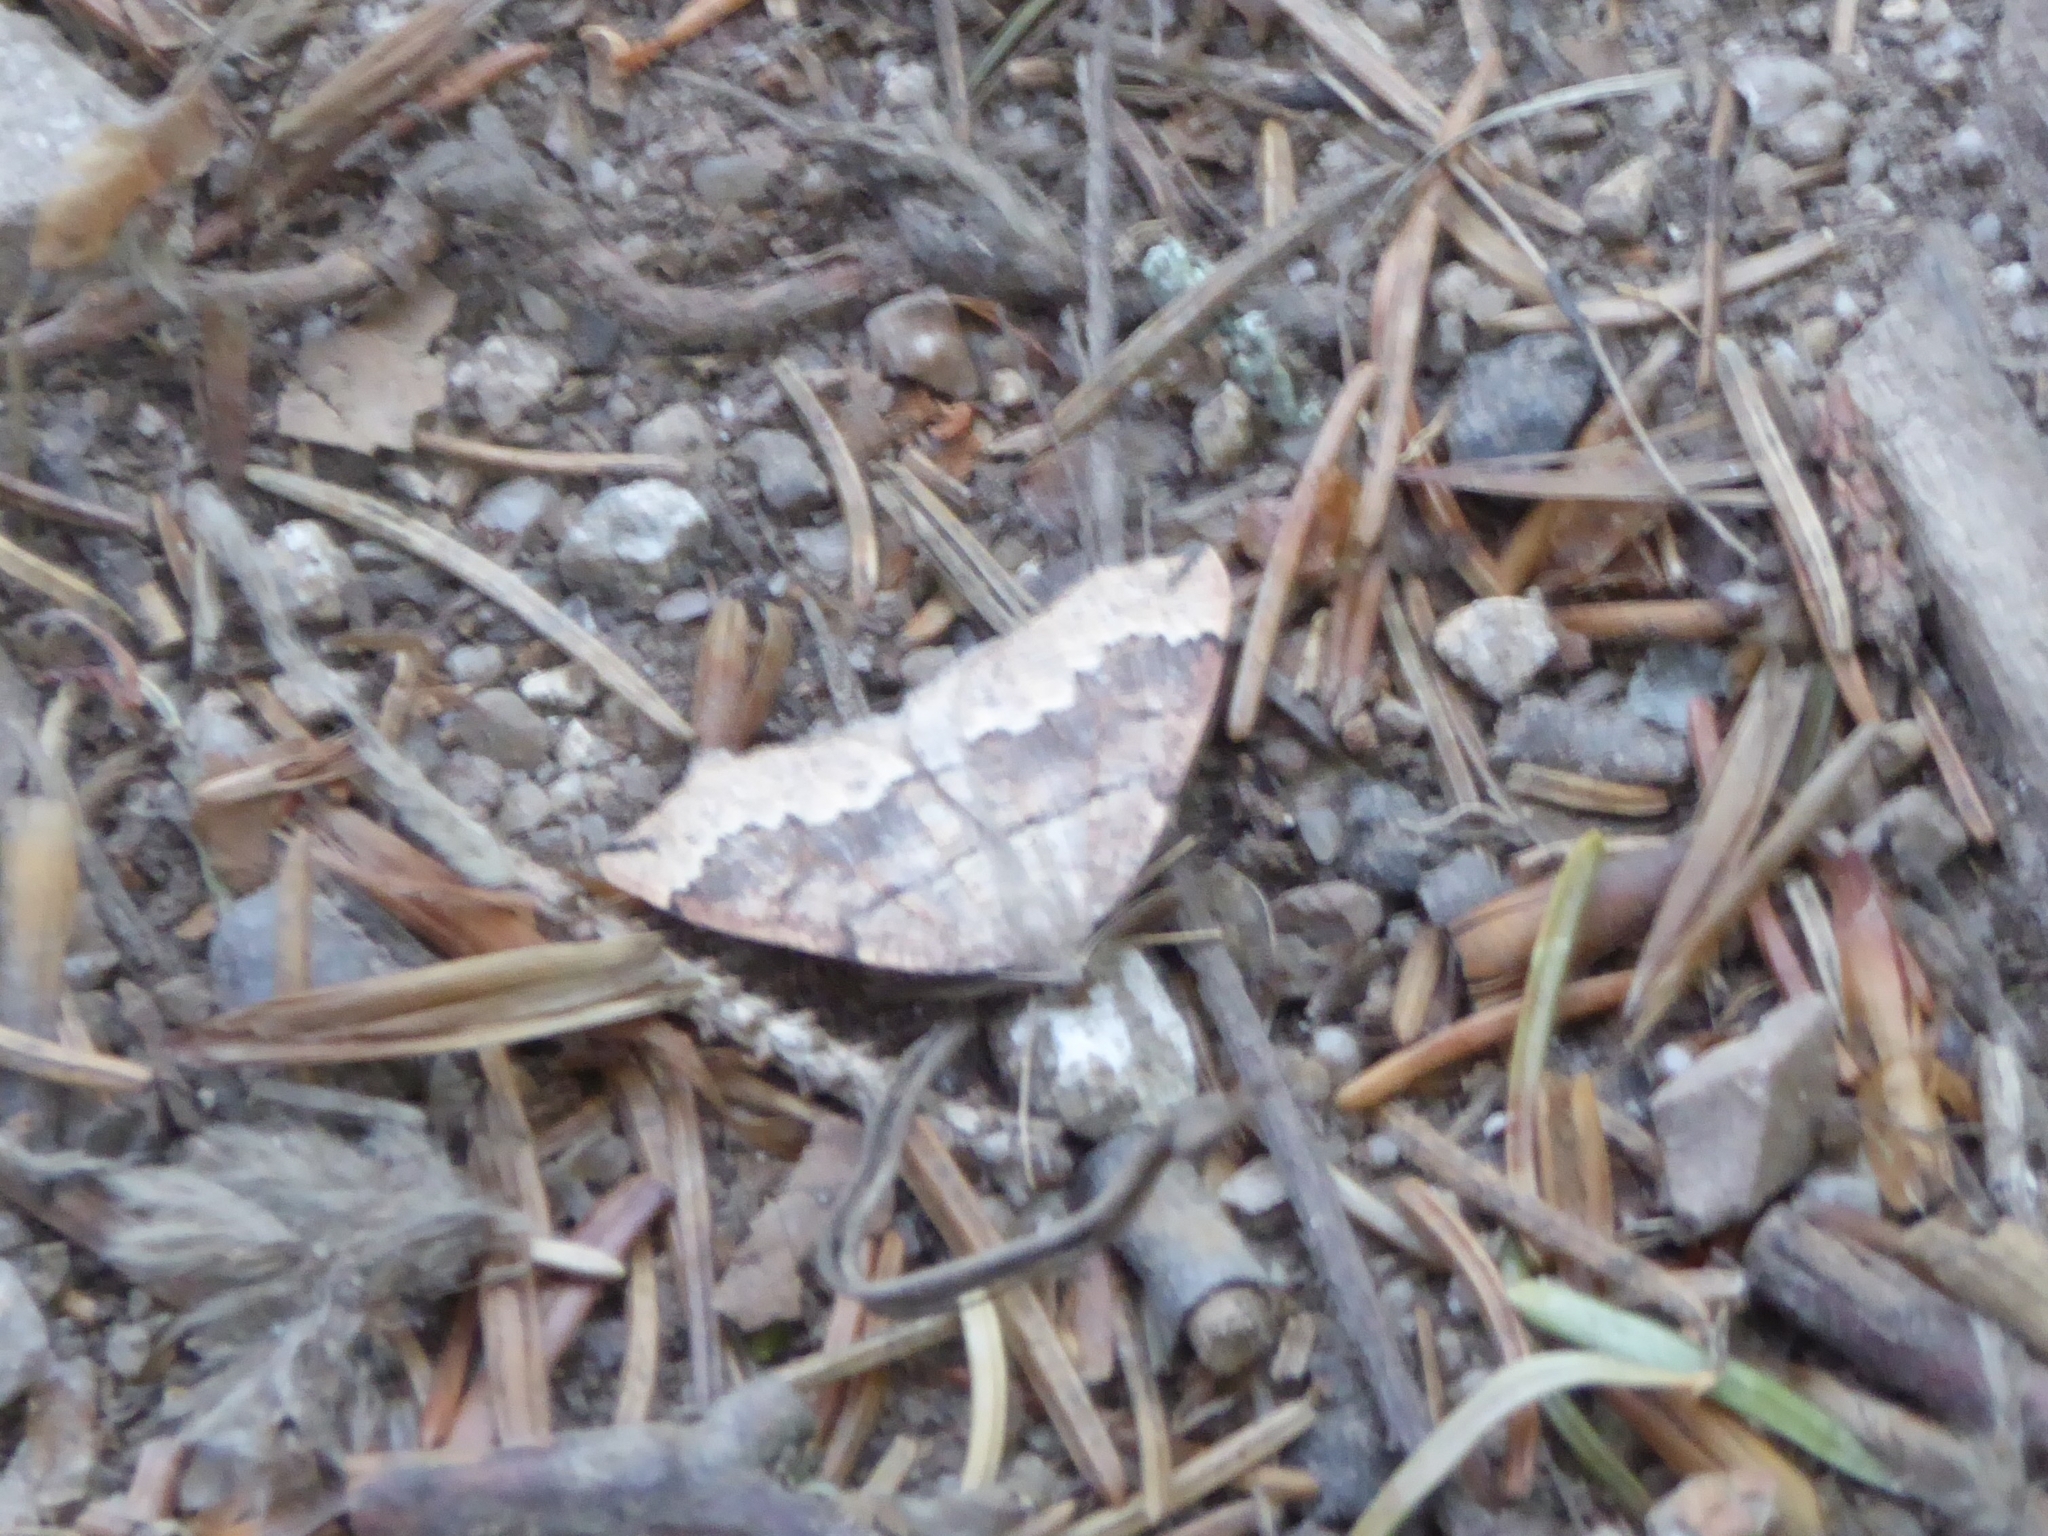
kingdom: Animalia
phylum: Arthropoda
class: Insecta
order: Lepidoptera
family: Geometridae
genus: Pungeleria
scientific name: Pungeleria capreolaria
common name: Banded pine carpet
